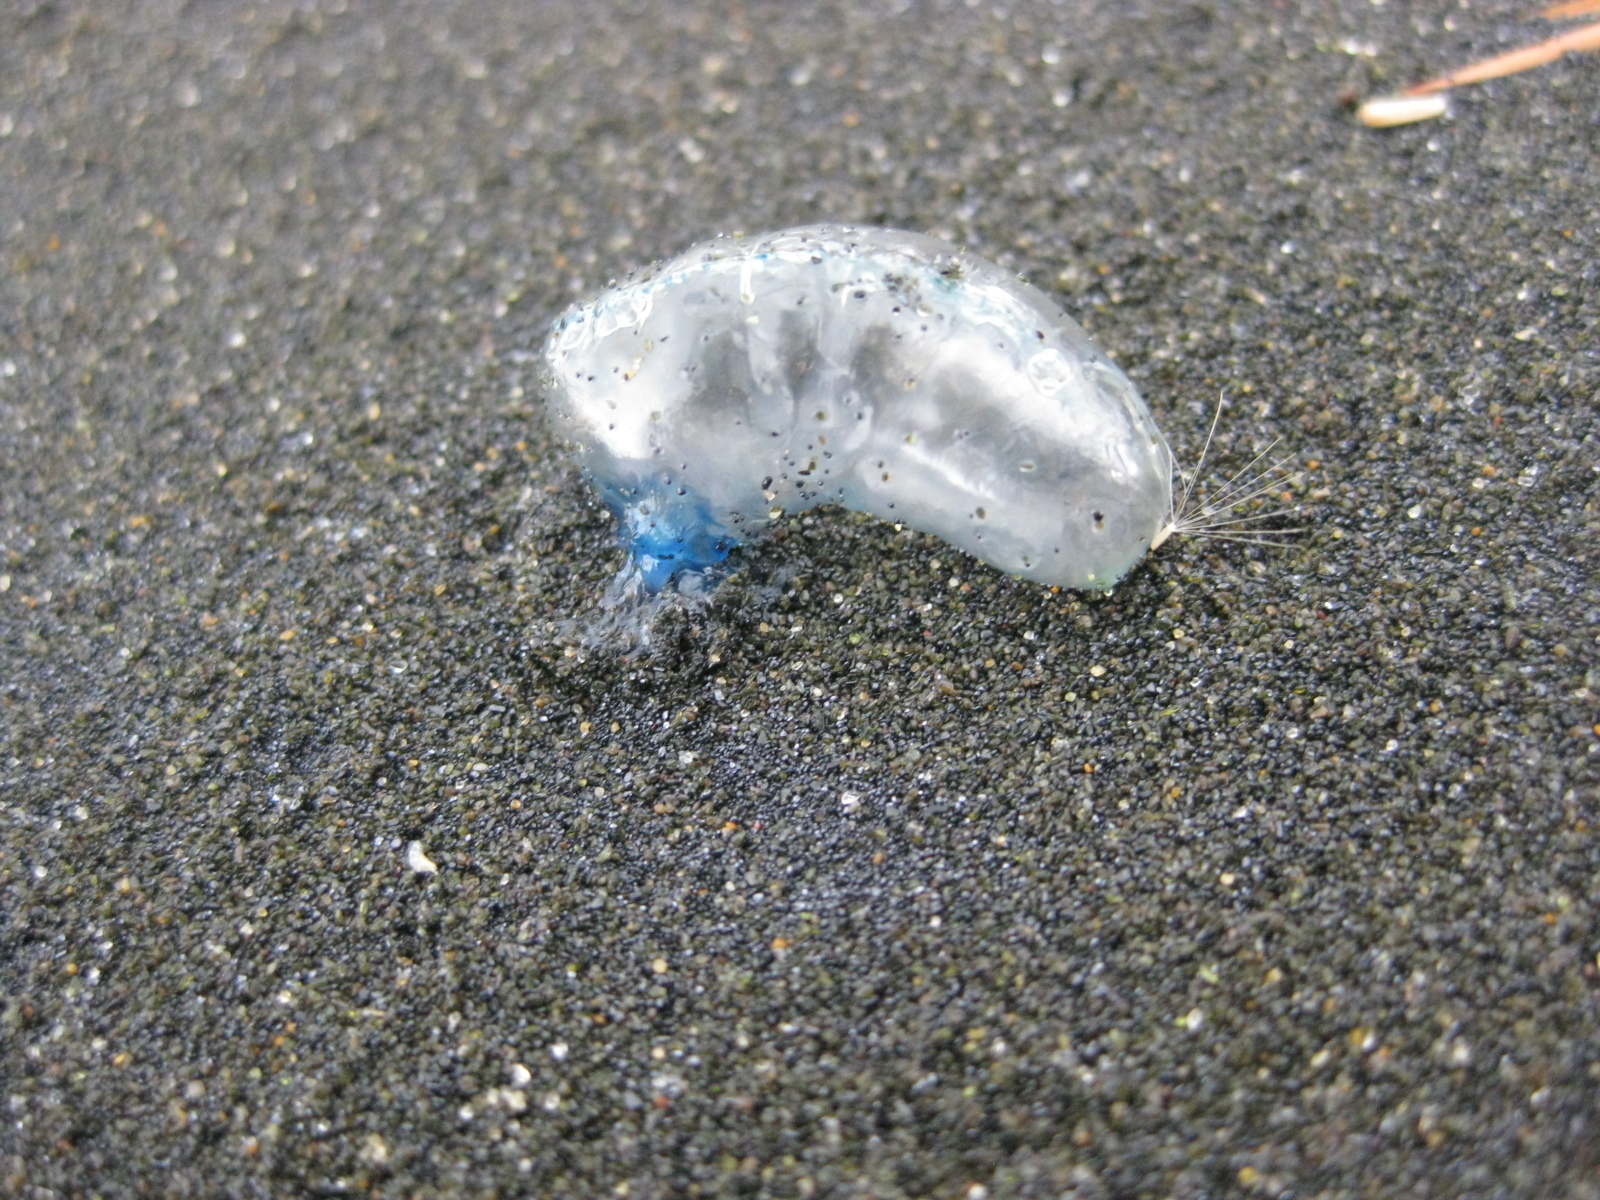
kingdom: Animalia
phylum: Cnidaria
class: Hydrozoa
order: Siphonophorae
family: Physaliidae
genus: Physalia
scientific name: Physalia
